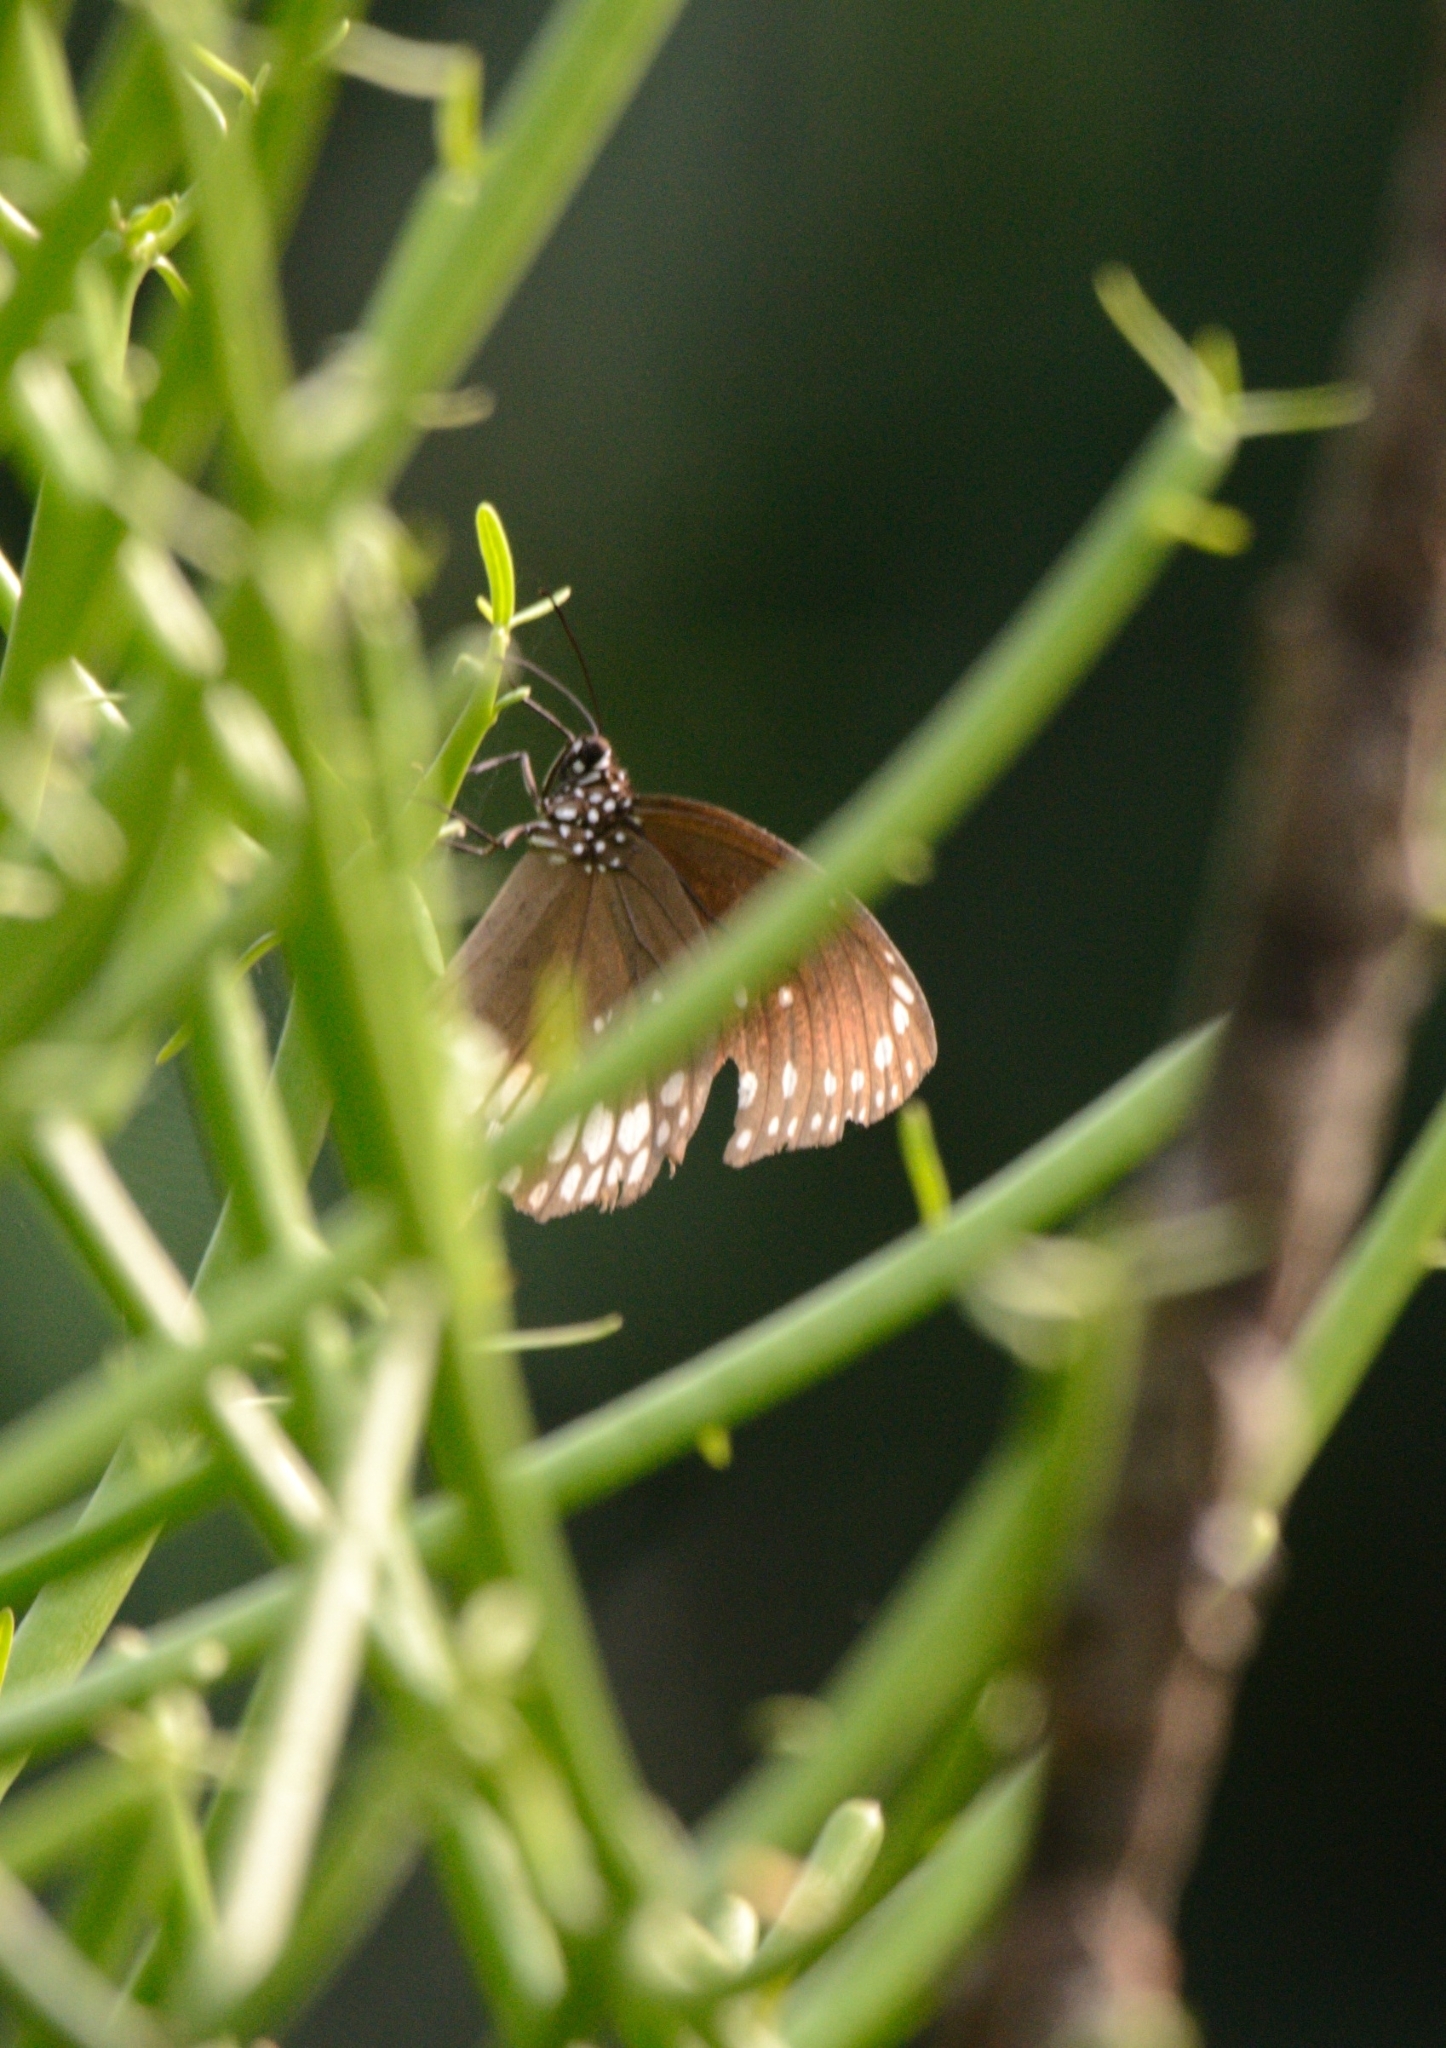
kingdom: Animalia
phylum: Arthropoda
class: Insecta
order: Lepidoptera
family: Nymphalidae
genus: Euploea
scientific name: Euploea core
